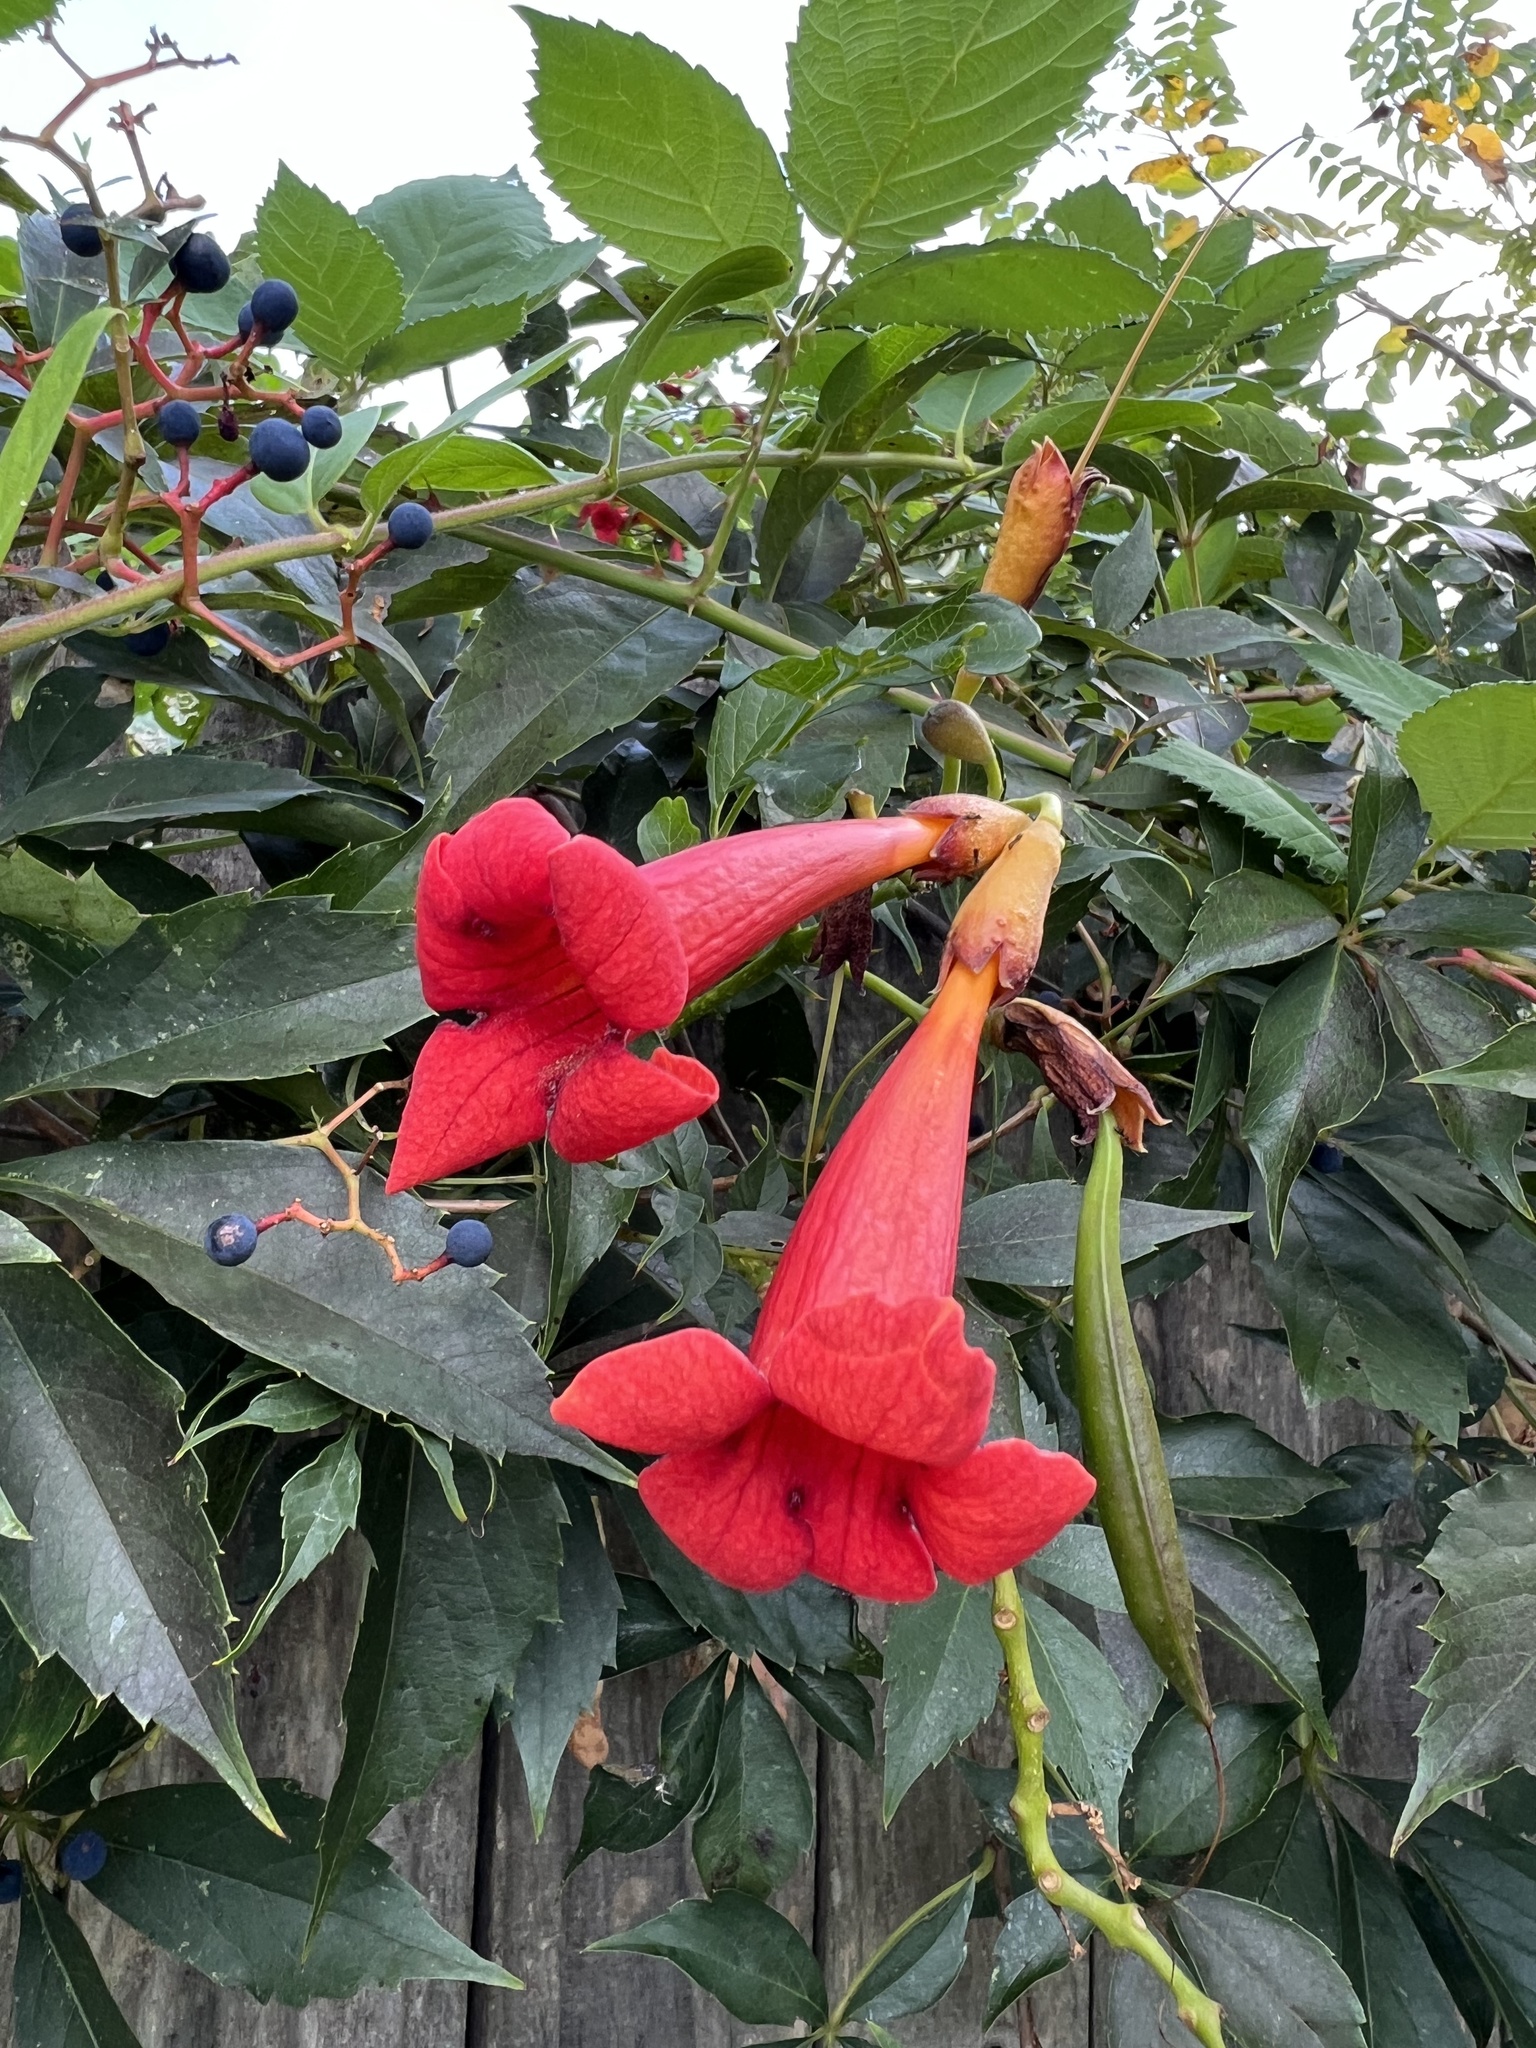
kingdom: Plantae
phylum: Tracheophyta
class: Magnoliopsida
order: Lamiales
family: Bignoniaceae
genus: Campsis
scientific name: Campsis radicans
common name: Trumpet-creeper
